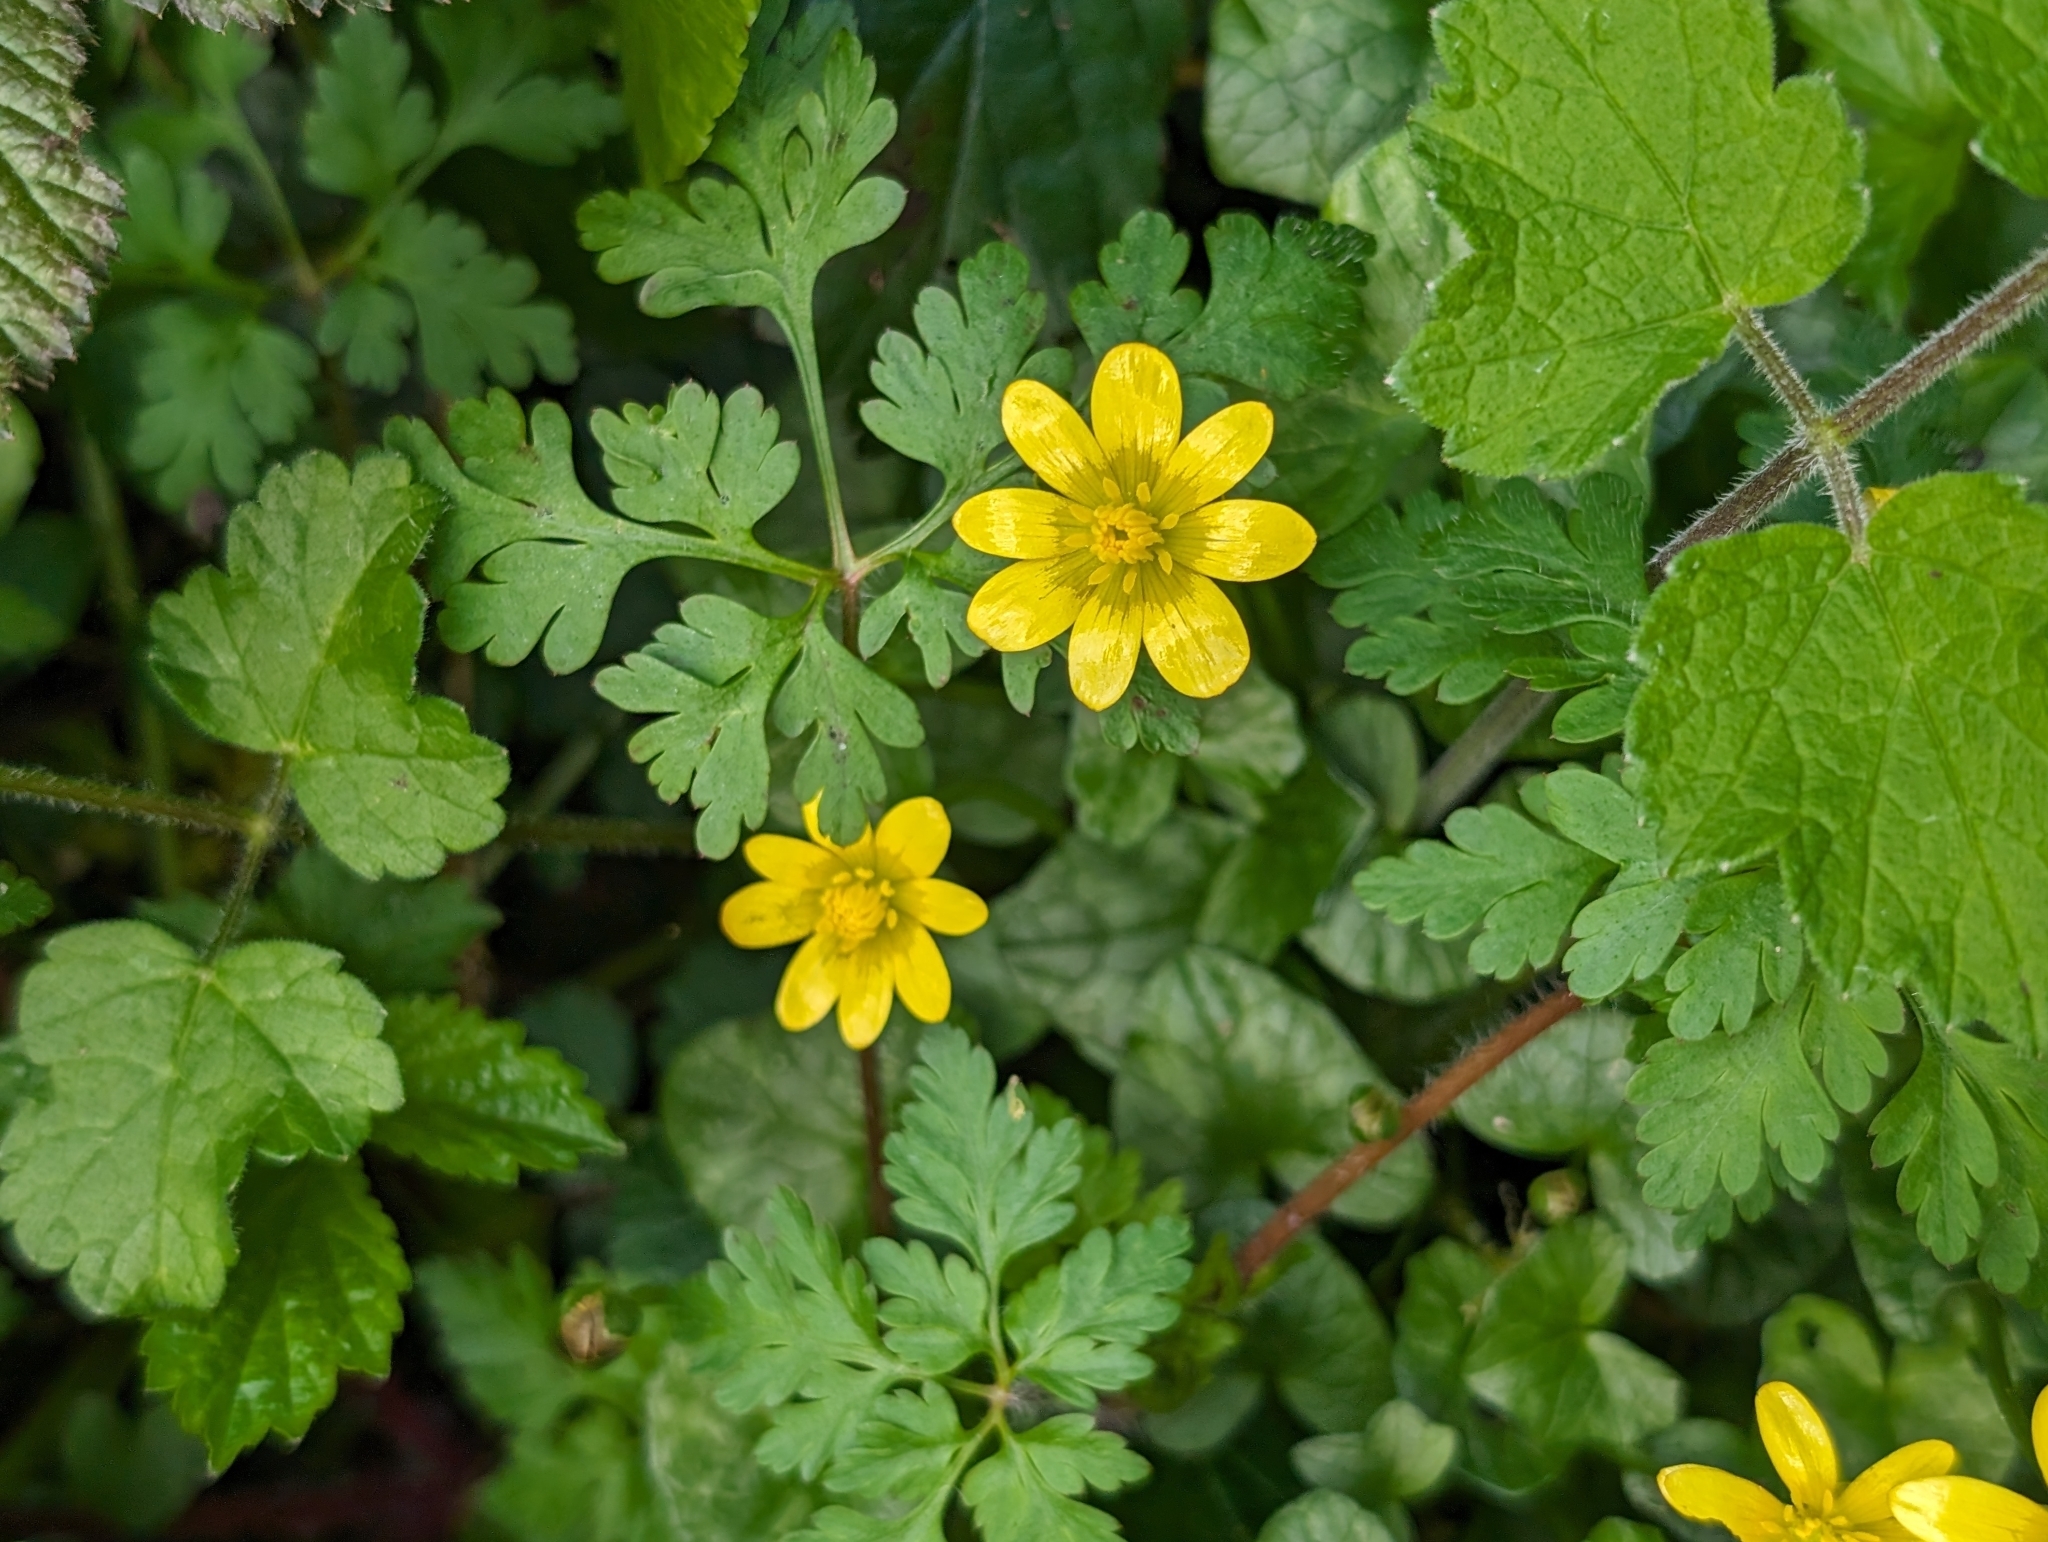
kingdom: Plantae
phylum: Tracheophyta
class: Magnoliopsida
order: Ranunculales
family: Ranunculaceae
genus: Ficaria
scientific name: Ficaria verna
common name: Lesser celandine
